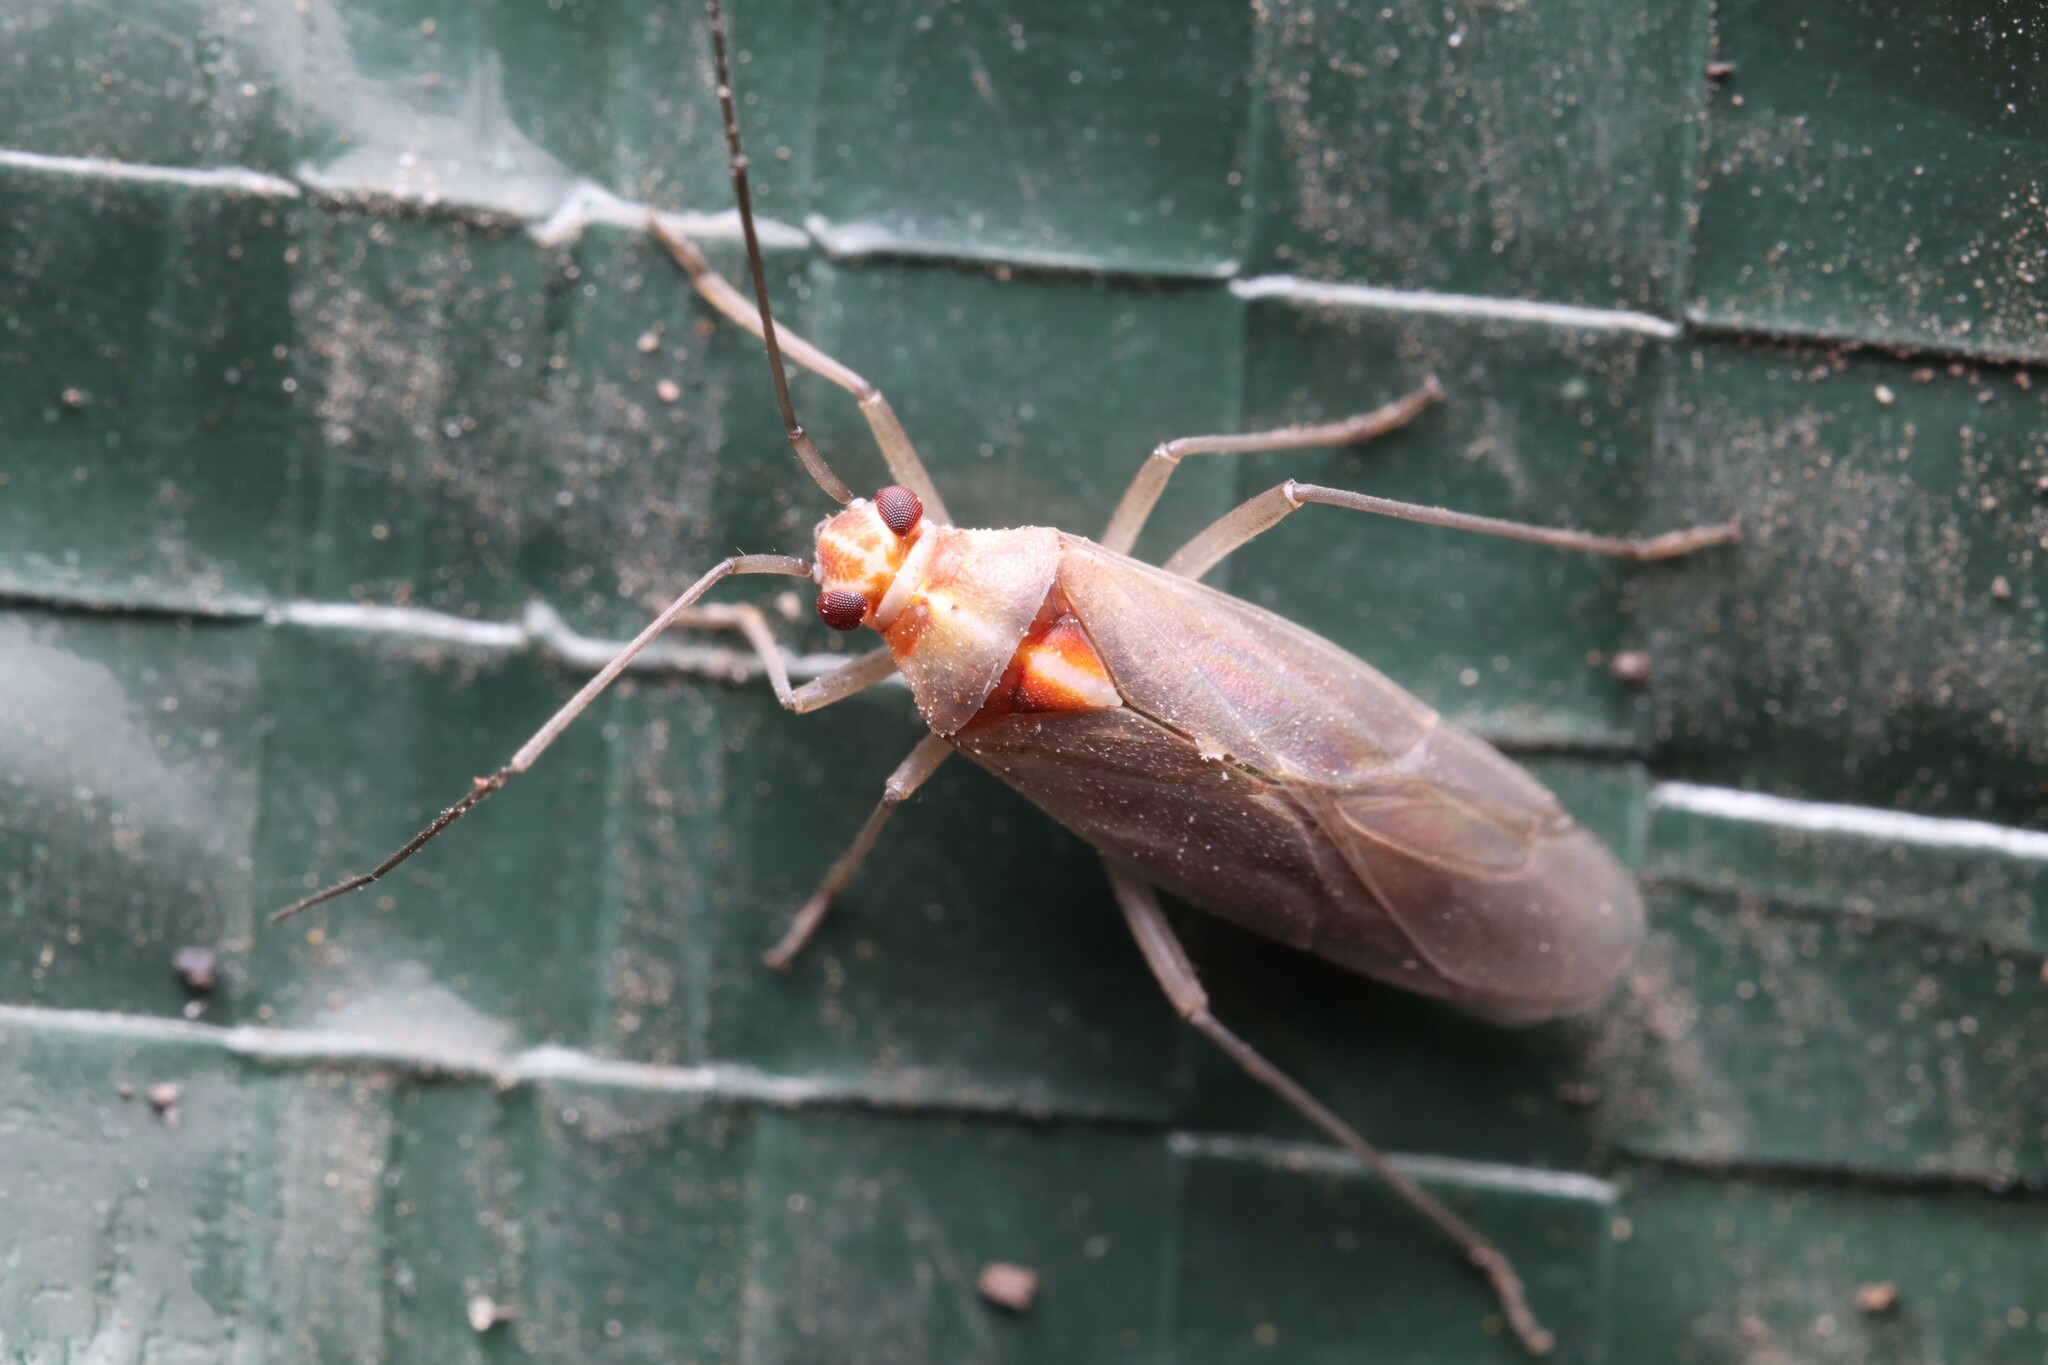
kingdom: Animalia
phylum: Arthropoda
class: Insecta
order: Hemiptera
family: Miridae
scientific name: Miridae
